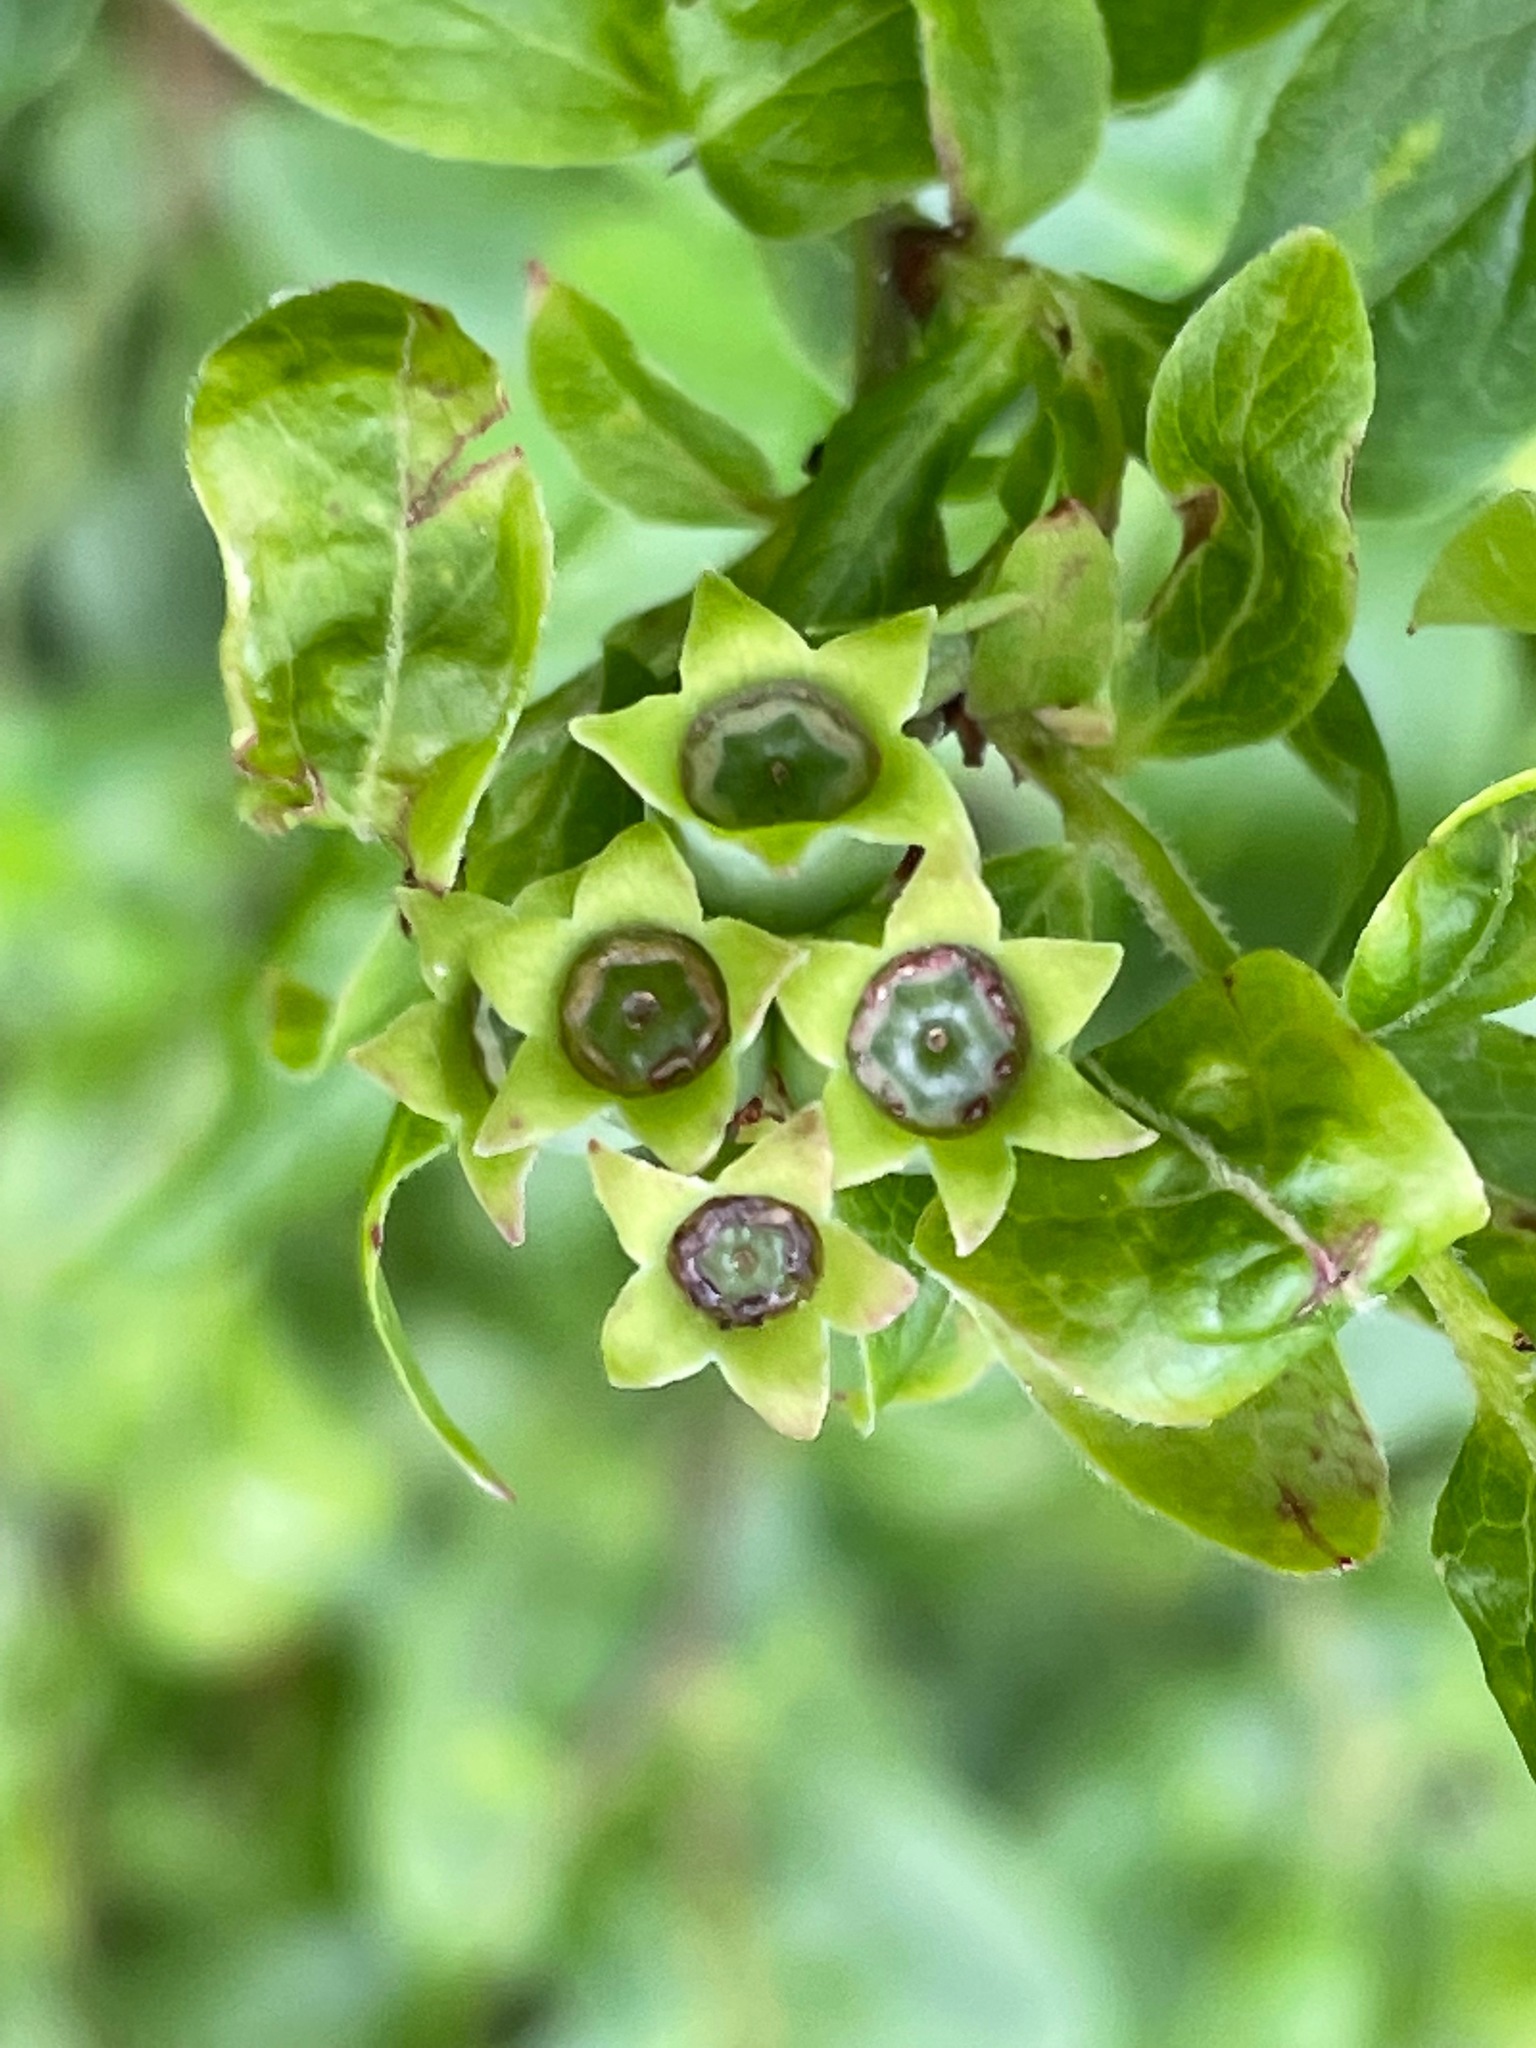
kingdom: Plantae
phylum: Tracheophyta
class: Magnoliopsida
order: Ericales
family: Ericaceae
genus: Vaccinium
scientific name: Vaccinium myrtilloides
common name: Canada blueberry
